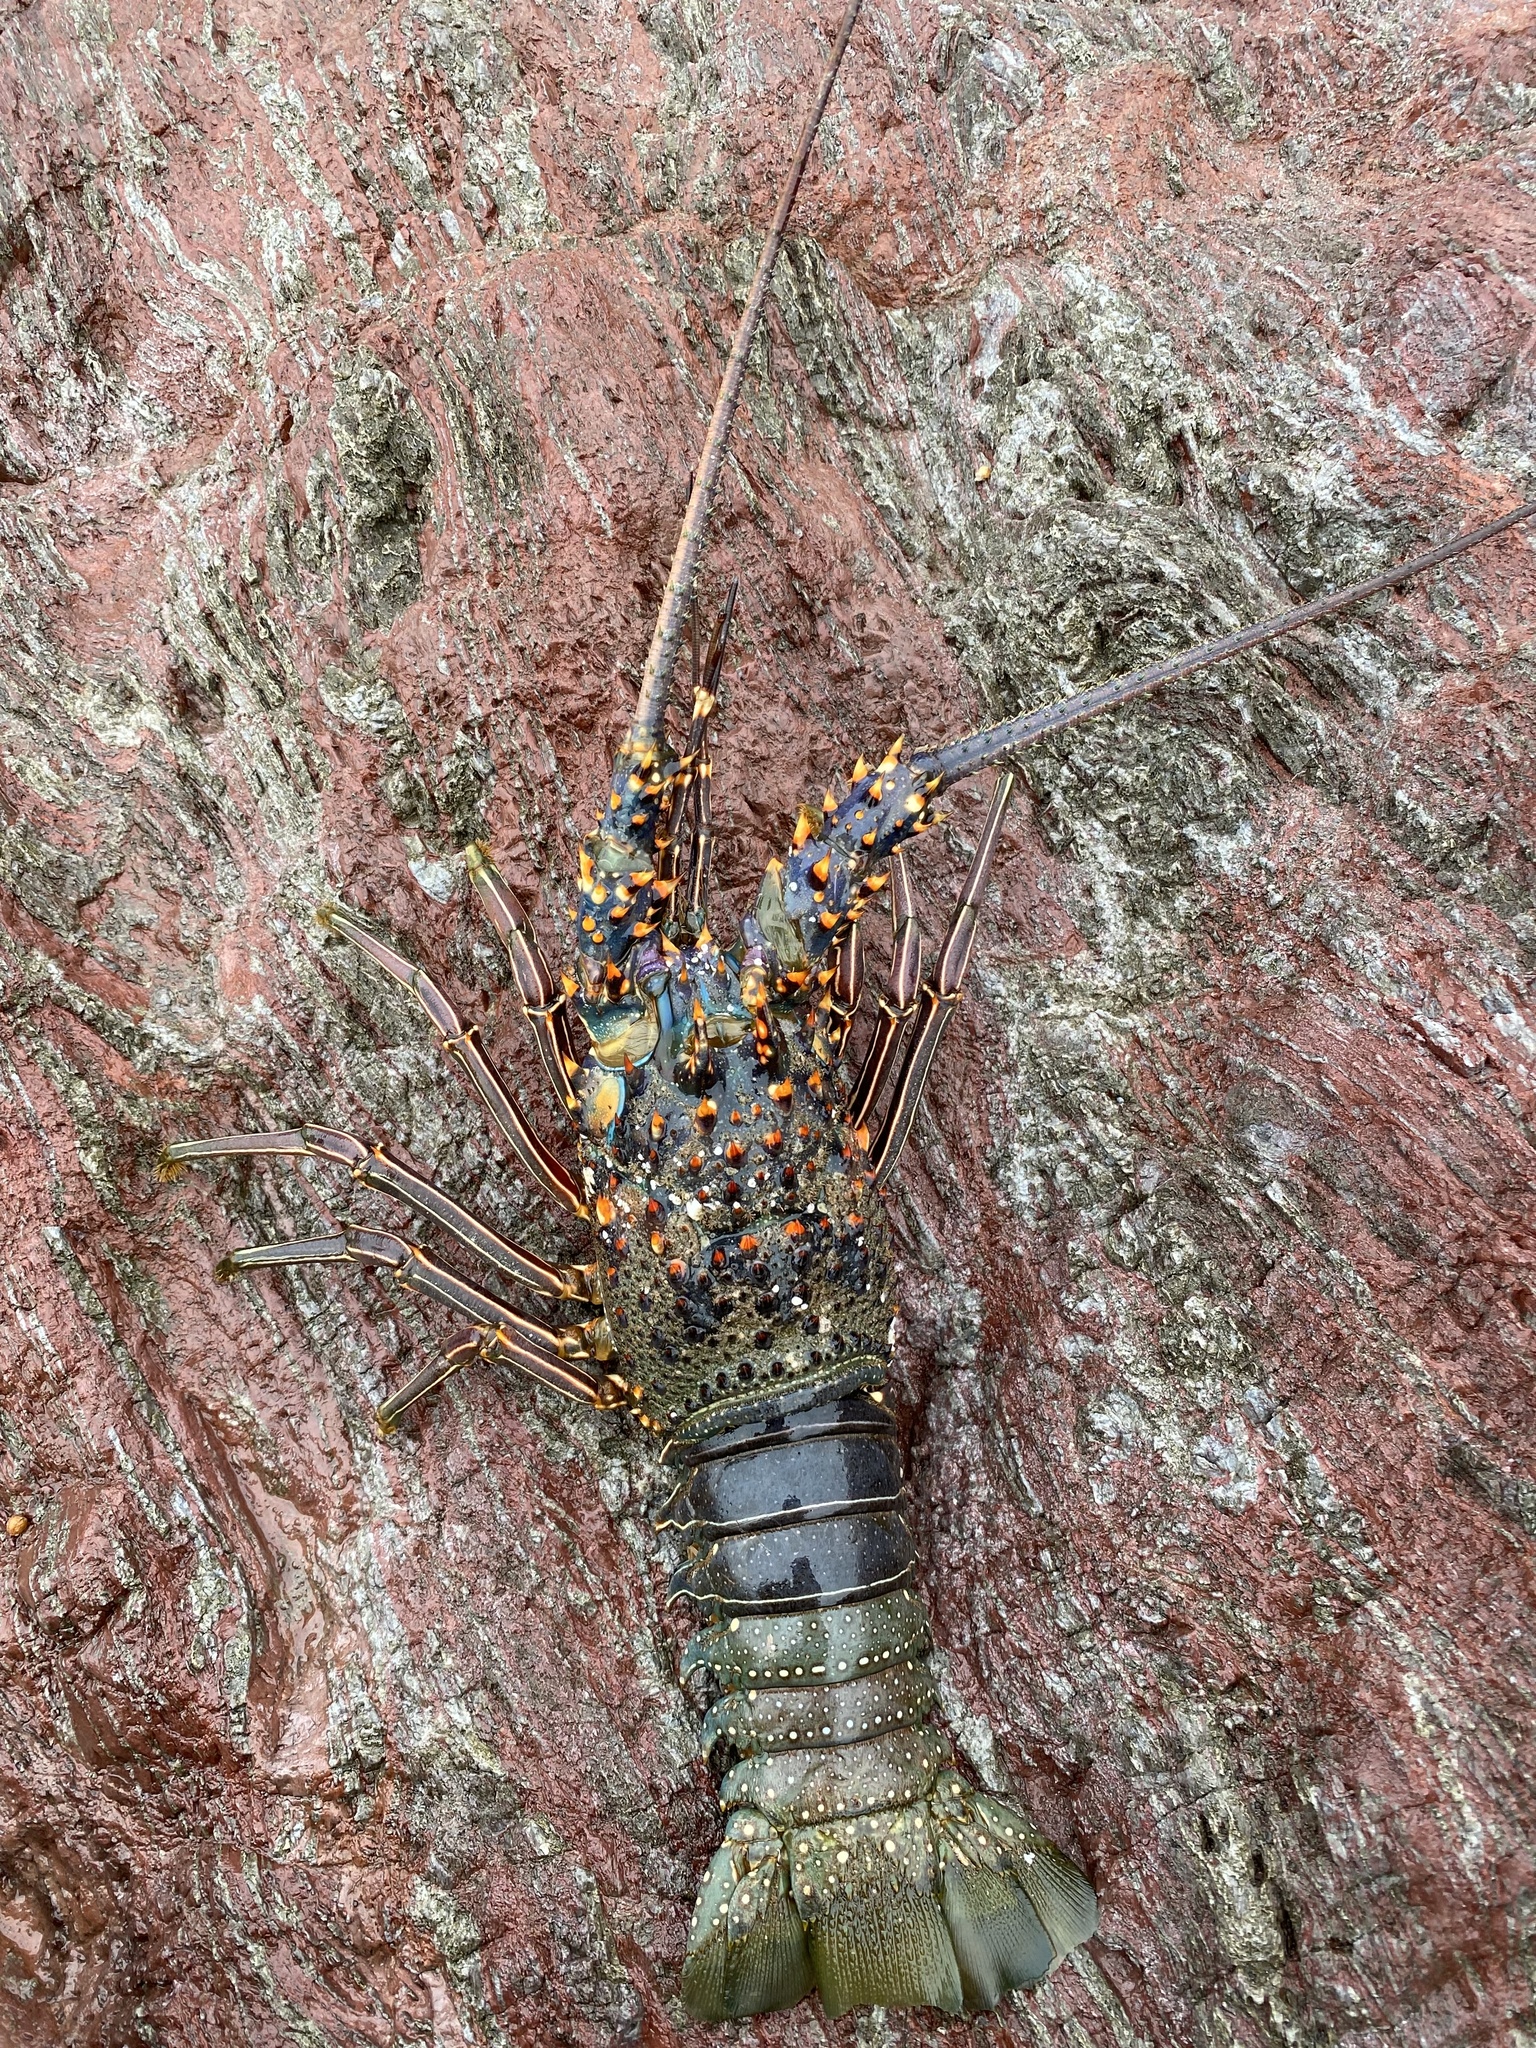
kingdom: Animalia
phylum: Arthropoda
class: Malacostraca
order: Decapoda
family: Palinuridae
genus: Panulirus
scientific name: Panulirus inflatus
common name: Blue spiny lobster
